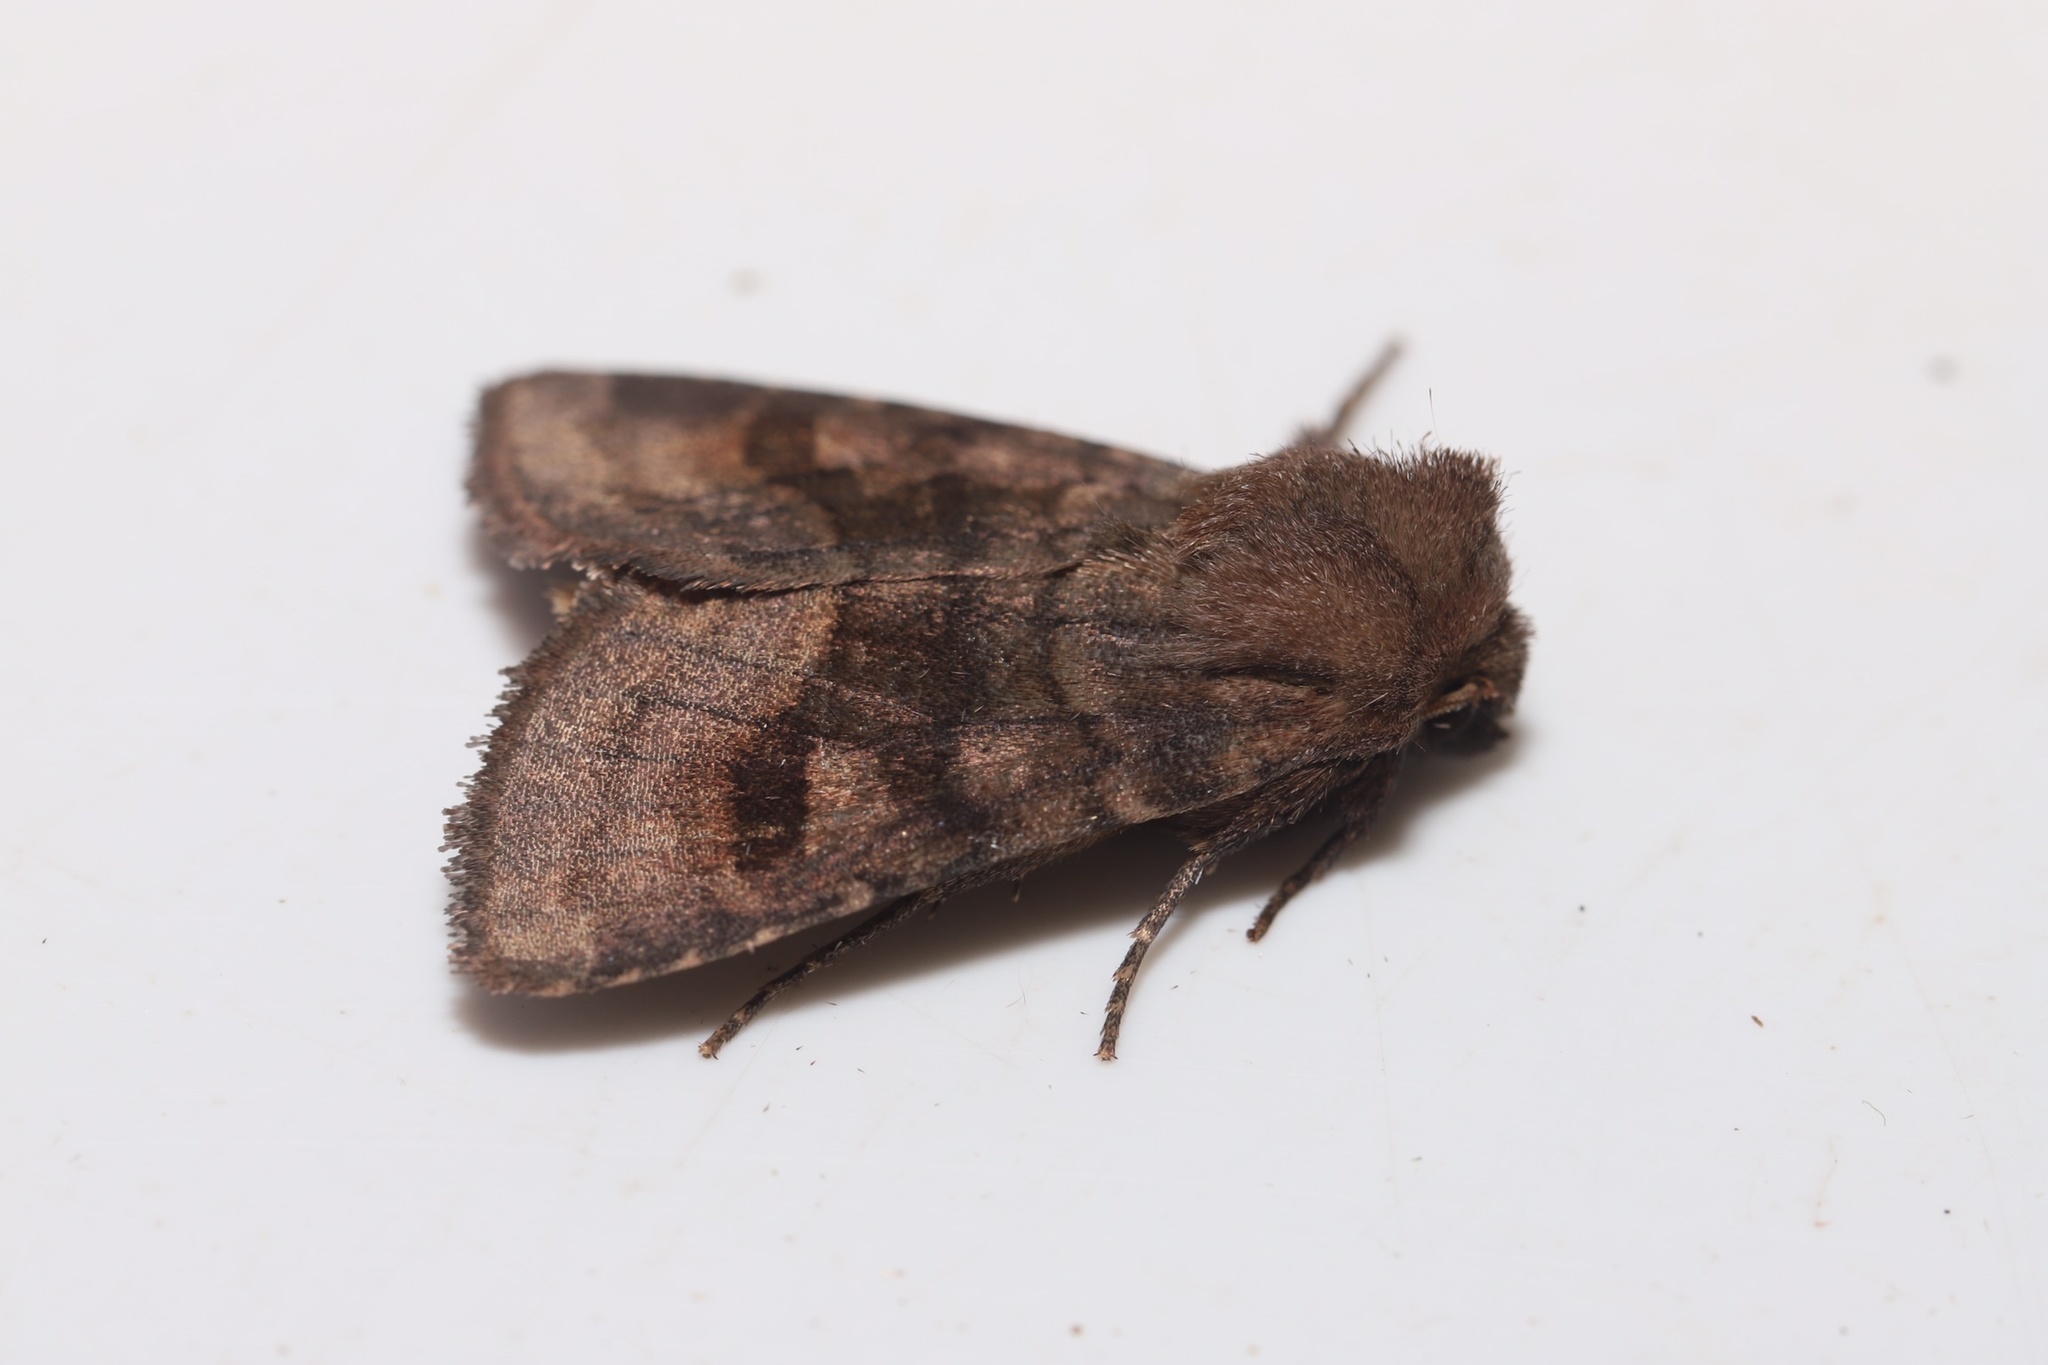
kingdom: Animalia
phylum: Arthropoda
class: Insecta
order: Lepidoptera
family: Noctuidae
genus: Nephelodes
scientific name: Nephelodes minians
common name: Bronzed cutworm
